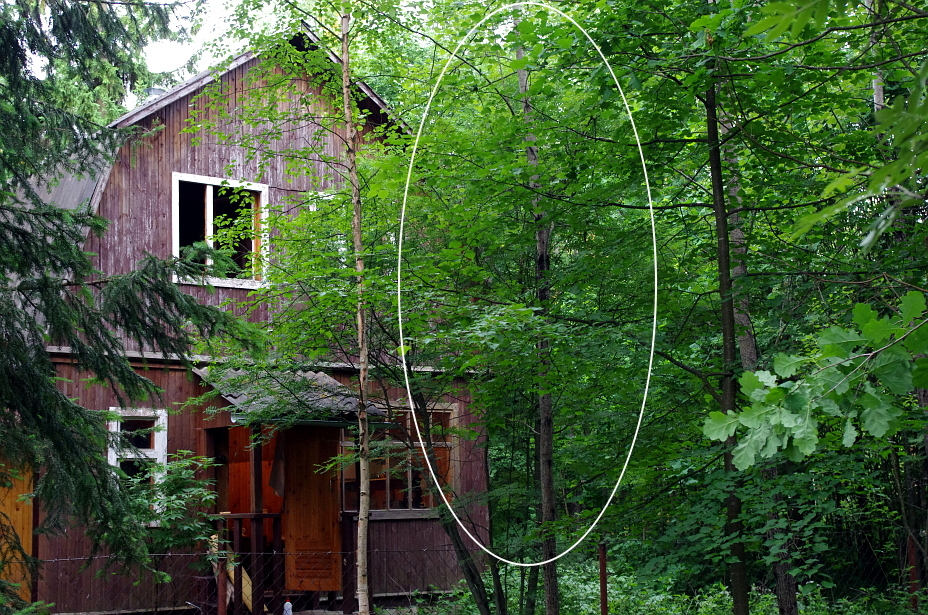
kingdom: Plantae
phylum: Tracheophyta
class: Magnoliopsida
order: Malpighiales
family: Salicaceae
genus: Populus
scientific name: Populus tremula
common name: European aspen
